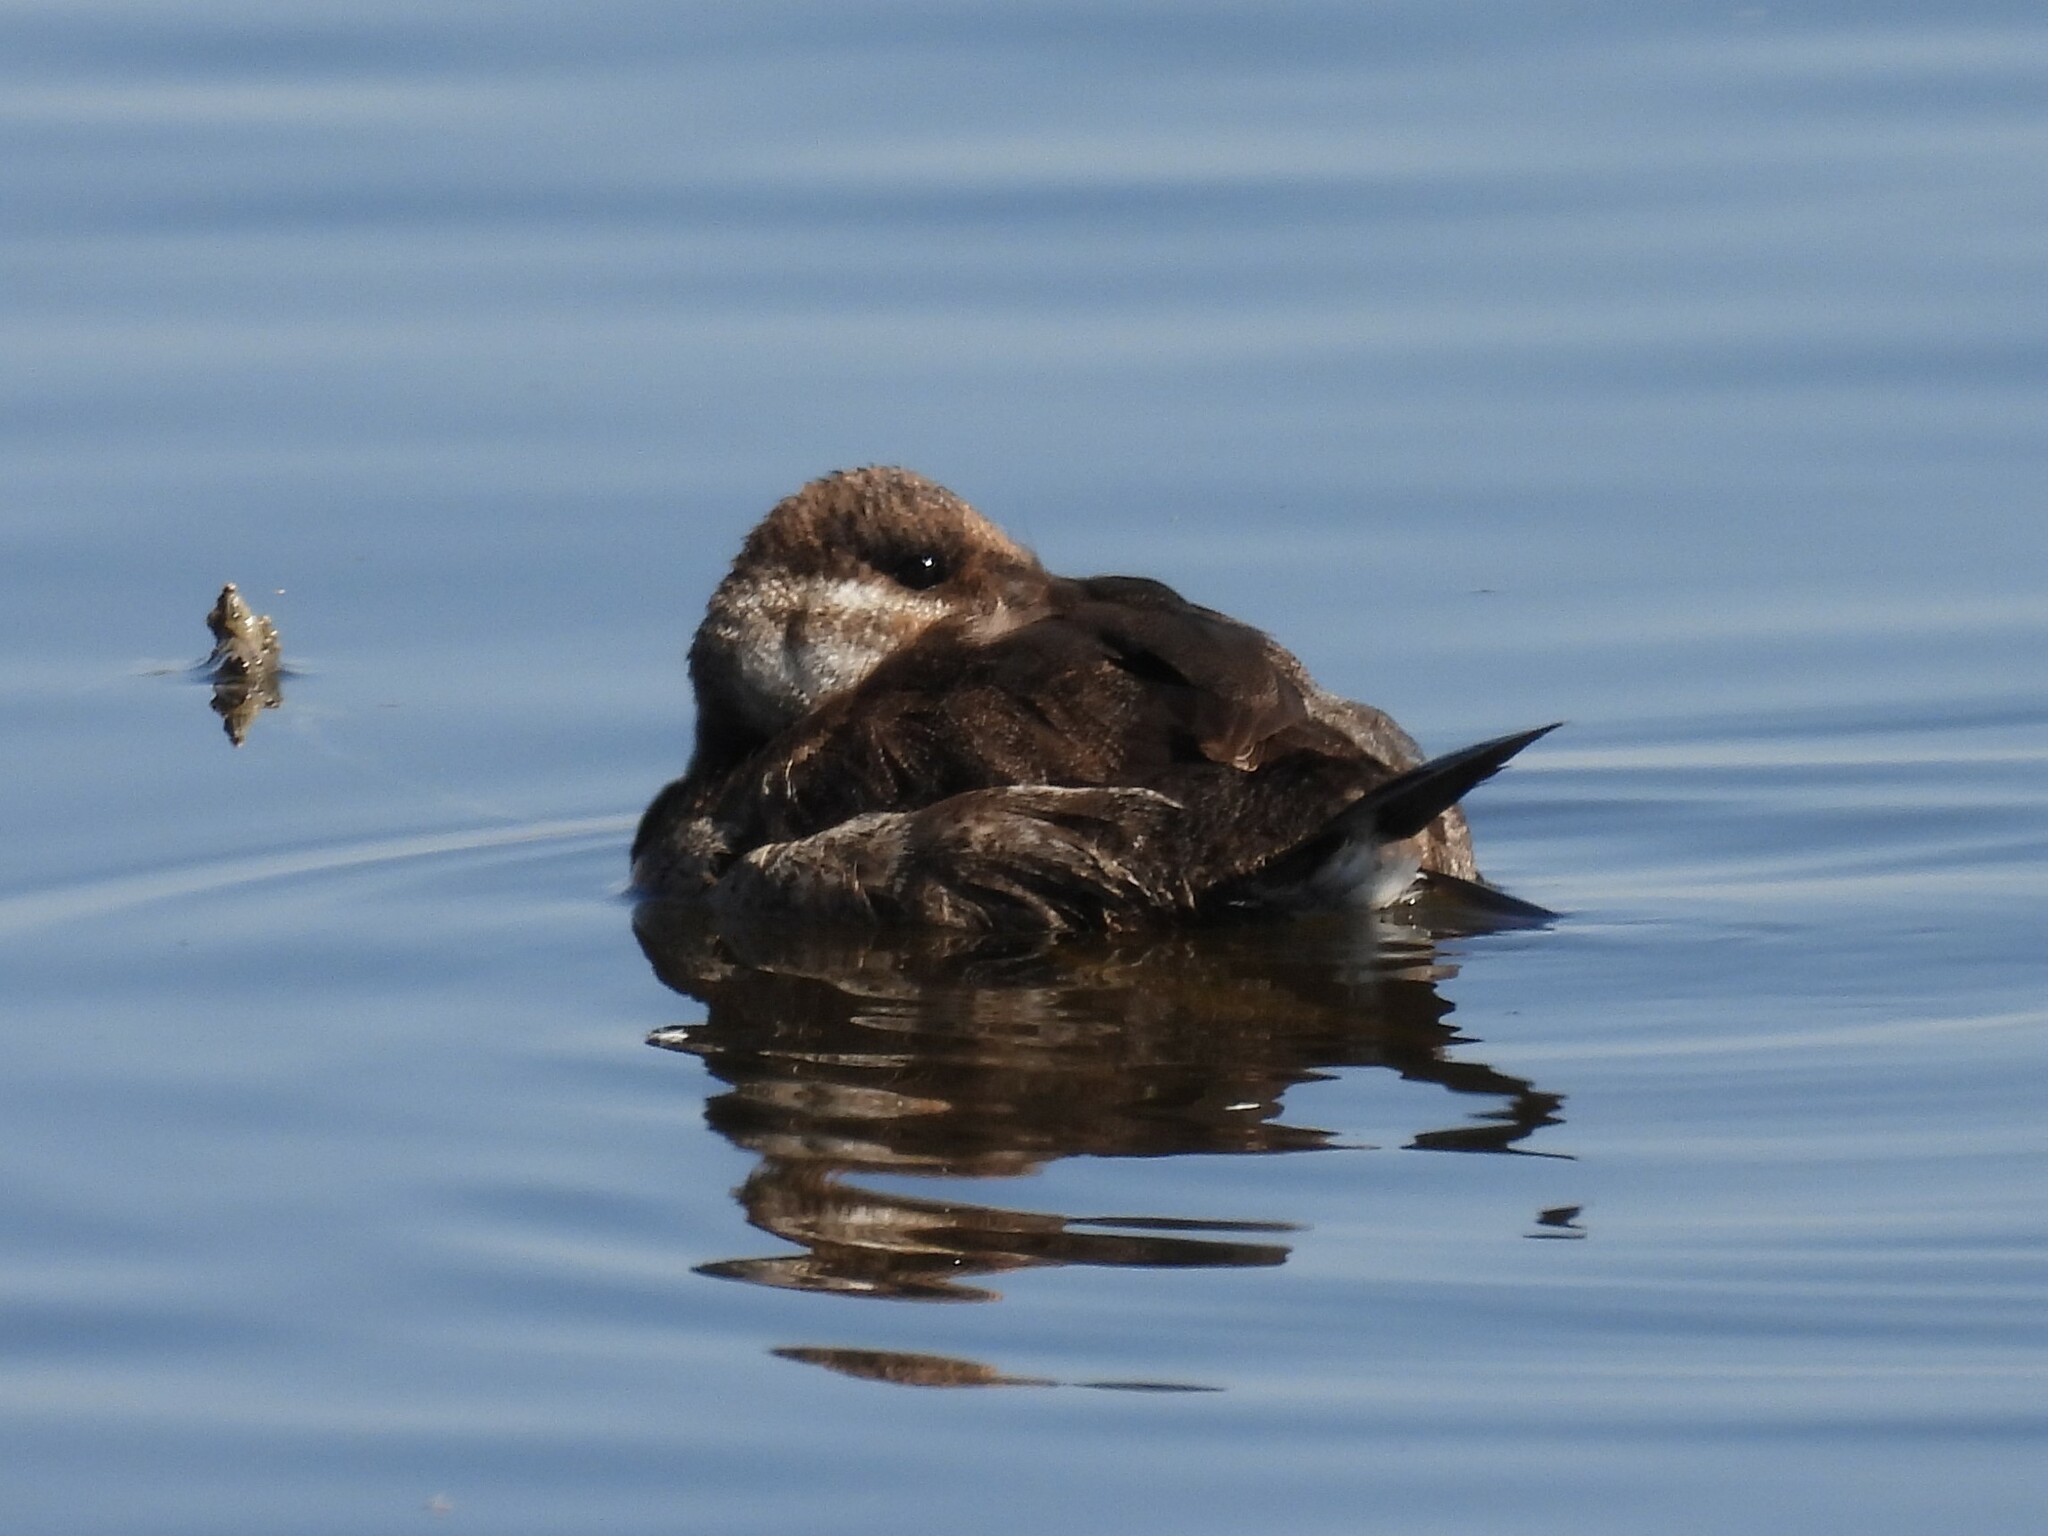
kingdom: Animalia
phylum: Chordata
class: Aves
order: Anseriformes
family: Anatidae
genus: Oxyura
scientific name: Oxyura jamaicensis
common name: Ruddy duck
